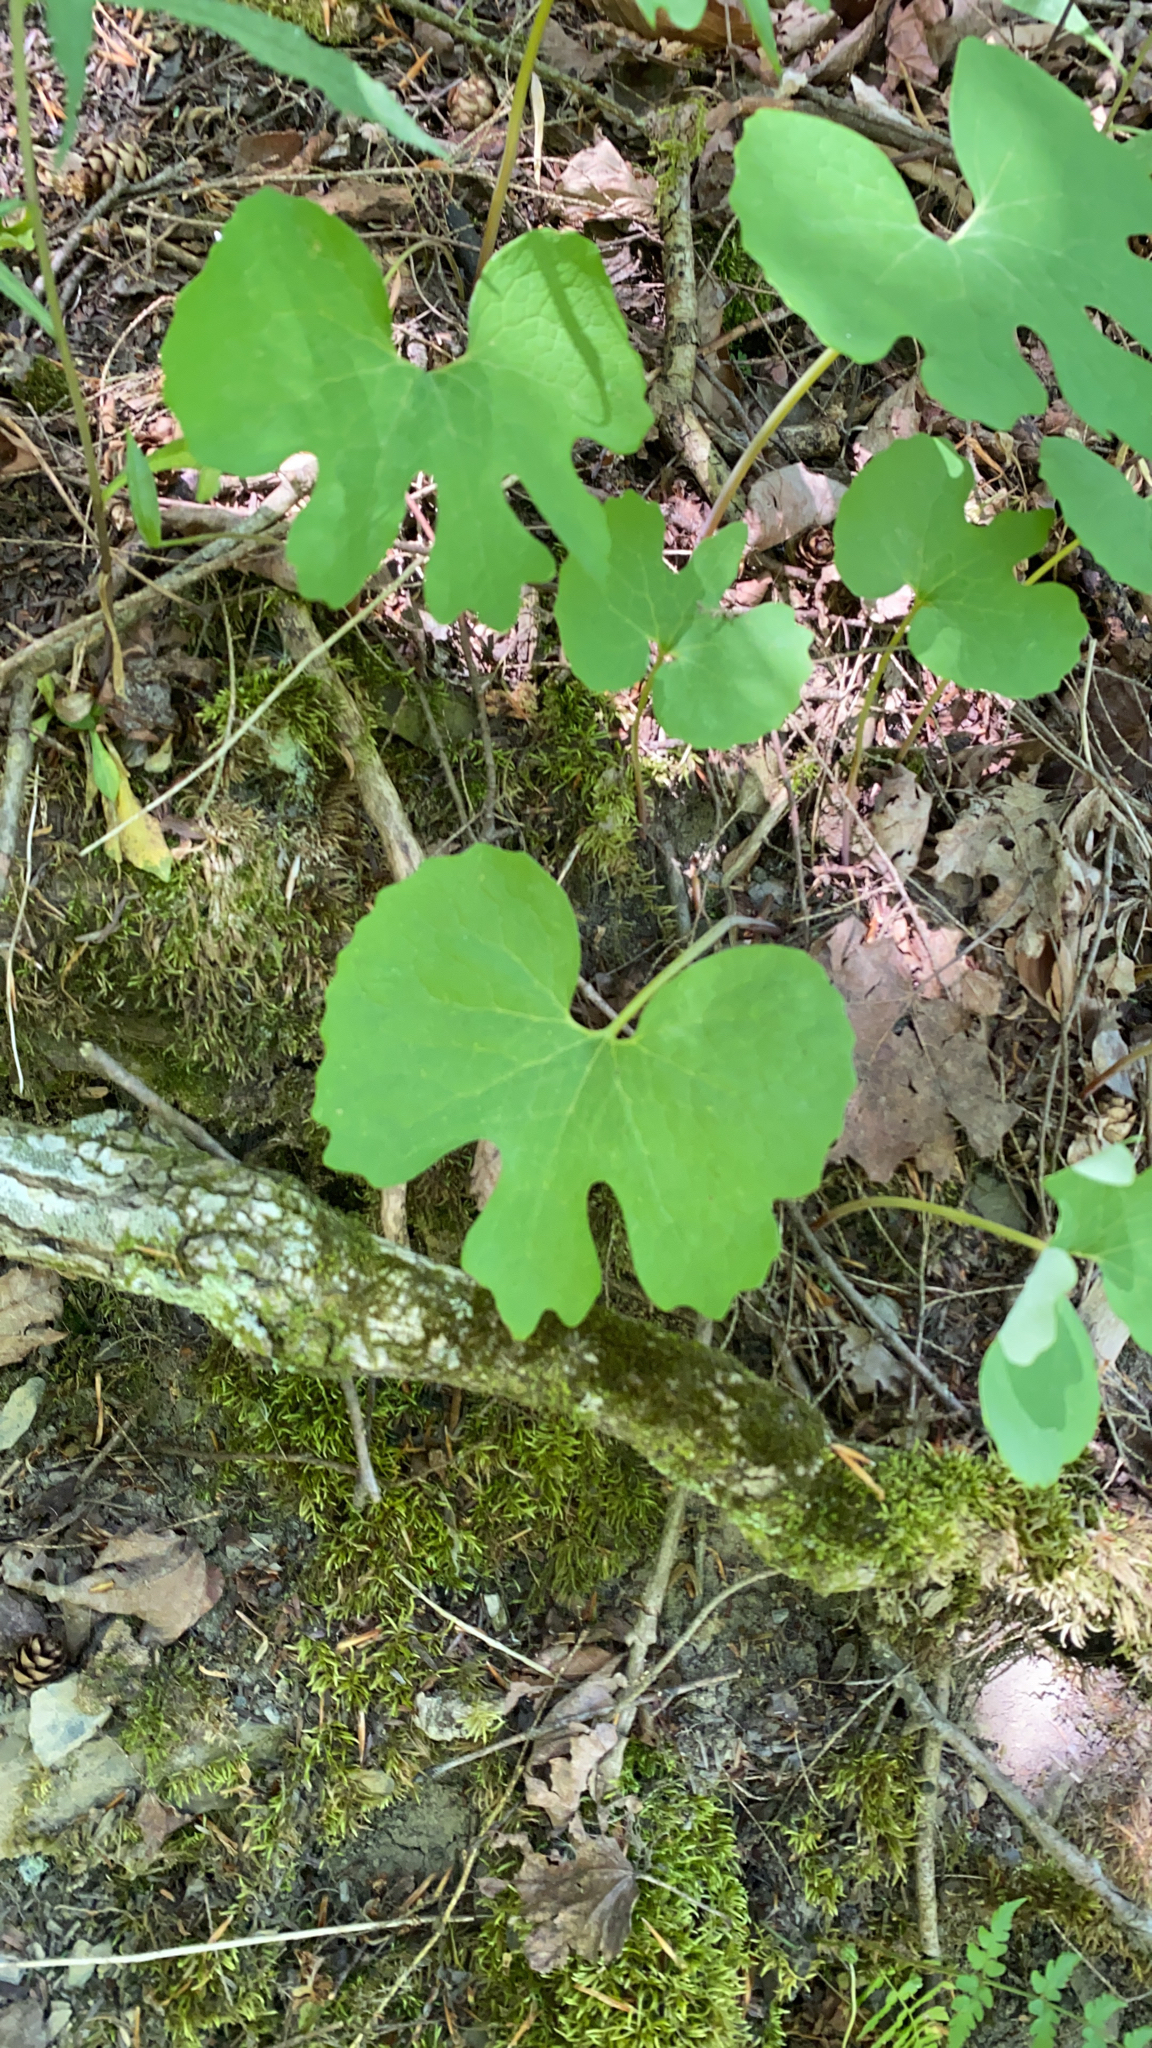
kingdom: Plantae
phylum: Tracheophyta
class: Magnoliopsida
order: Ranunculales
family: Papaveraceae
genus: Sanguinaria
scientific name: Sanguinaria canadensis
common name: Bloodroot
